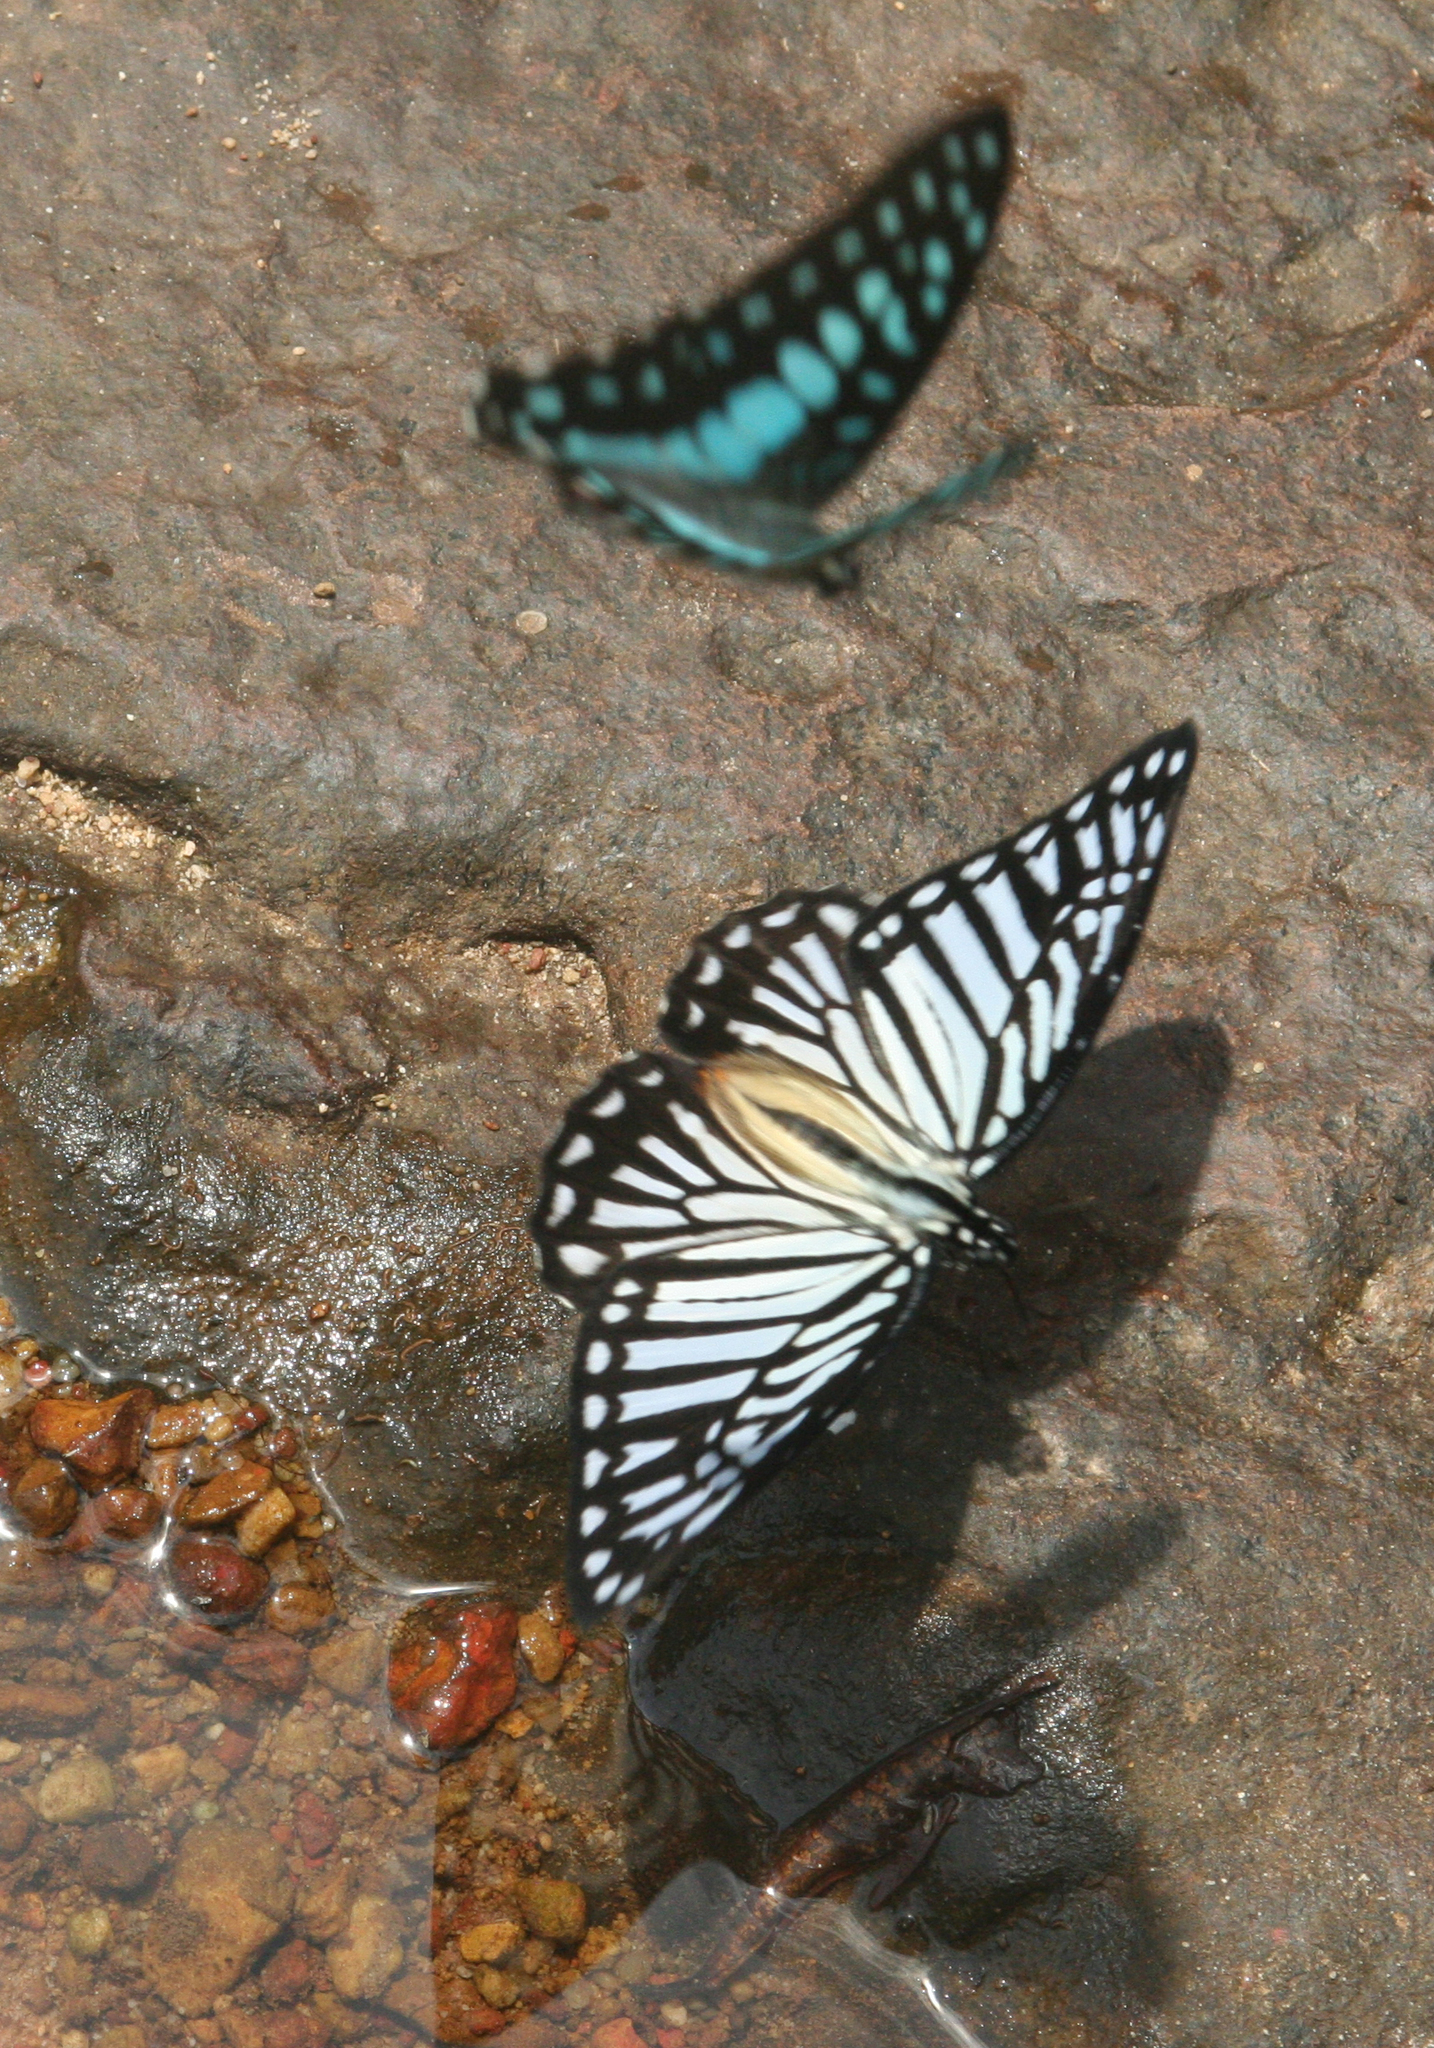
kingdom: Animalia
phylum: Arthropoda
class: Insecta
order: Lepidoptera
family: Papilionidae
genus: Graphium
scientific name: Graphium xenocles
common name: Great zebra
